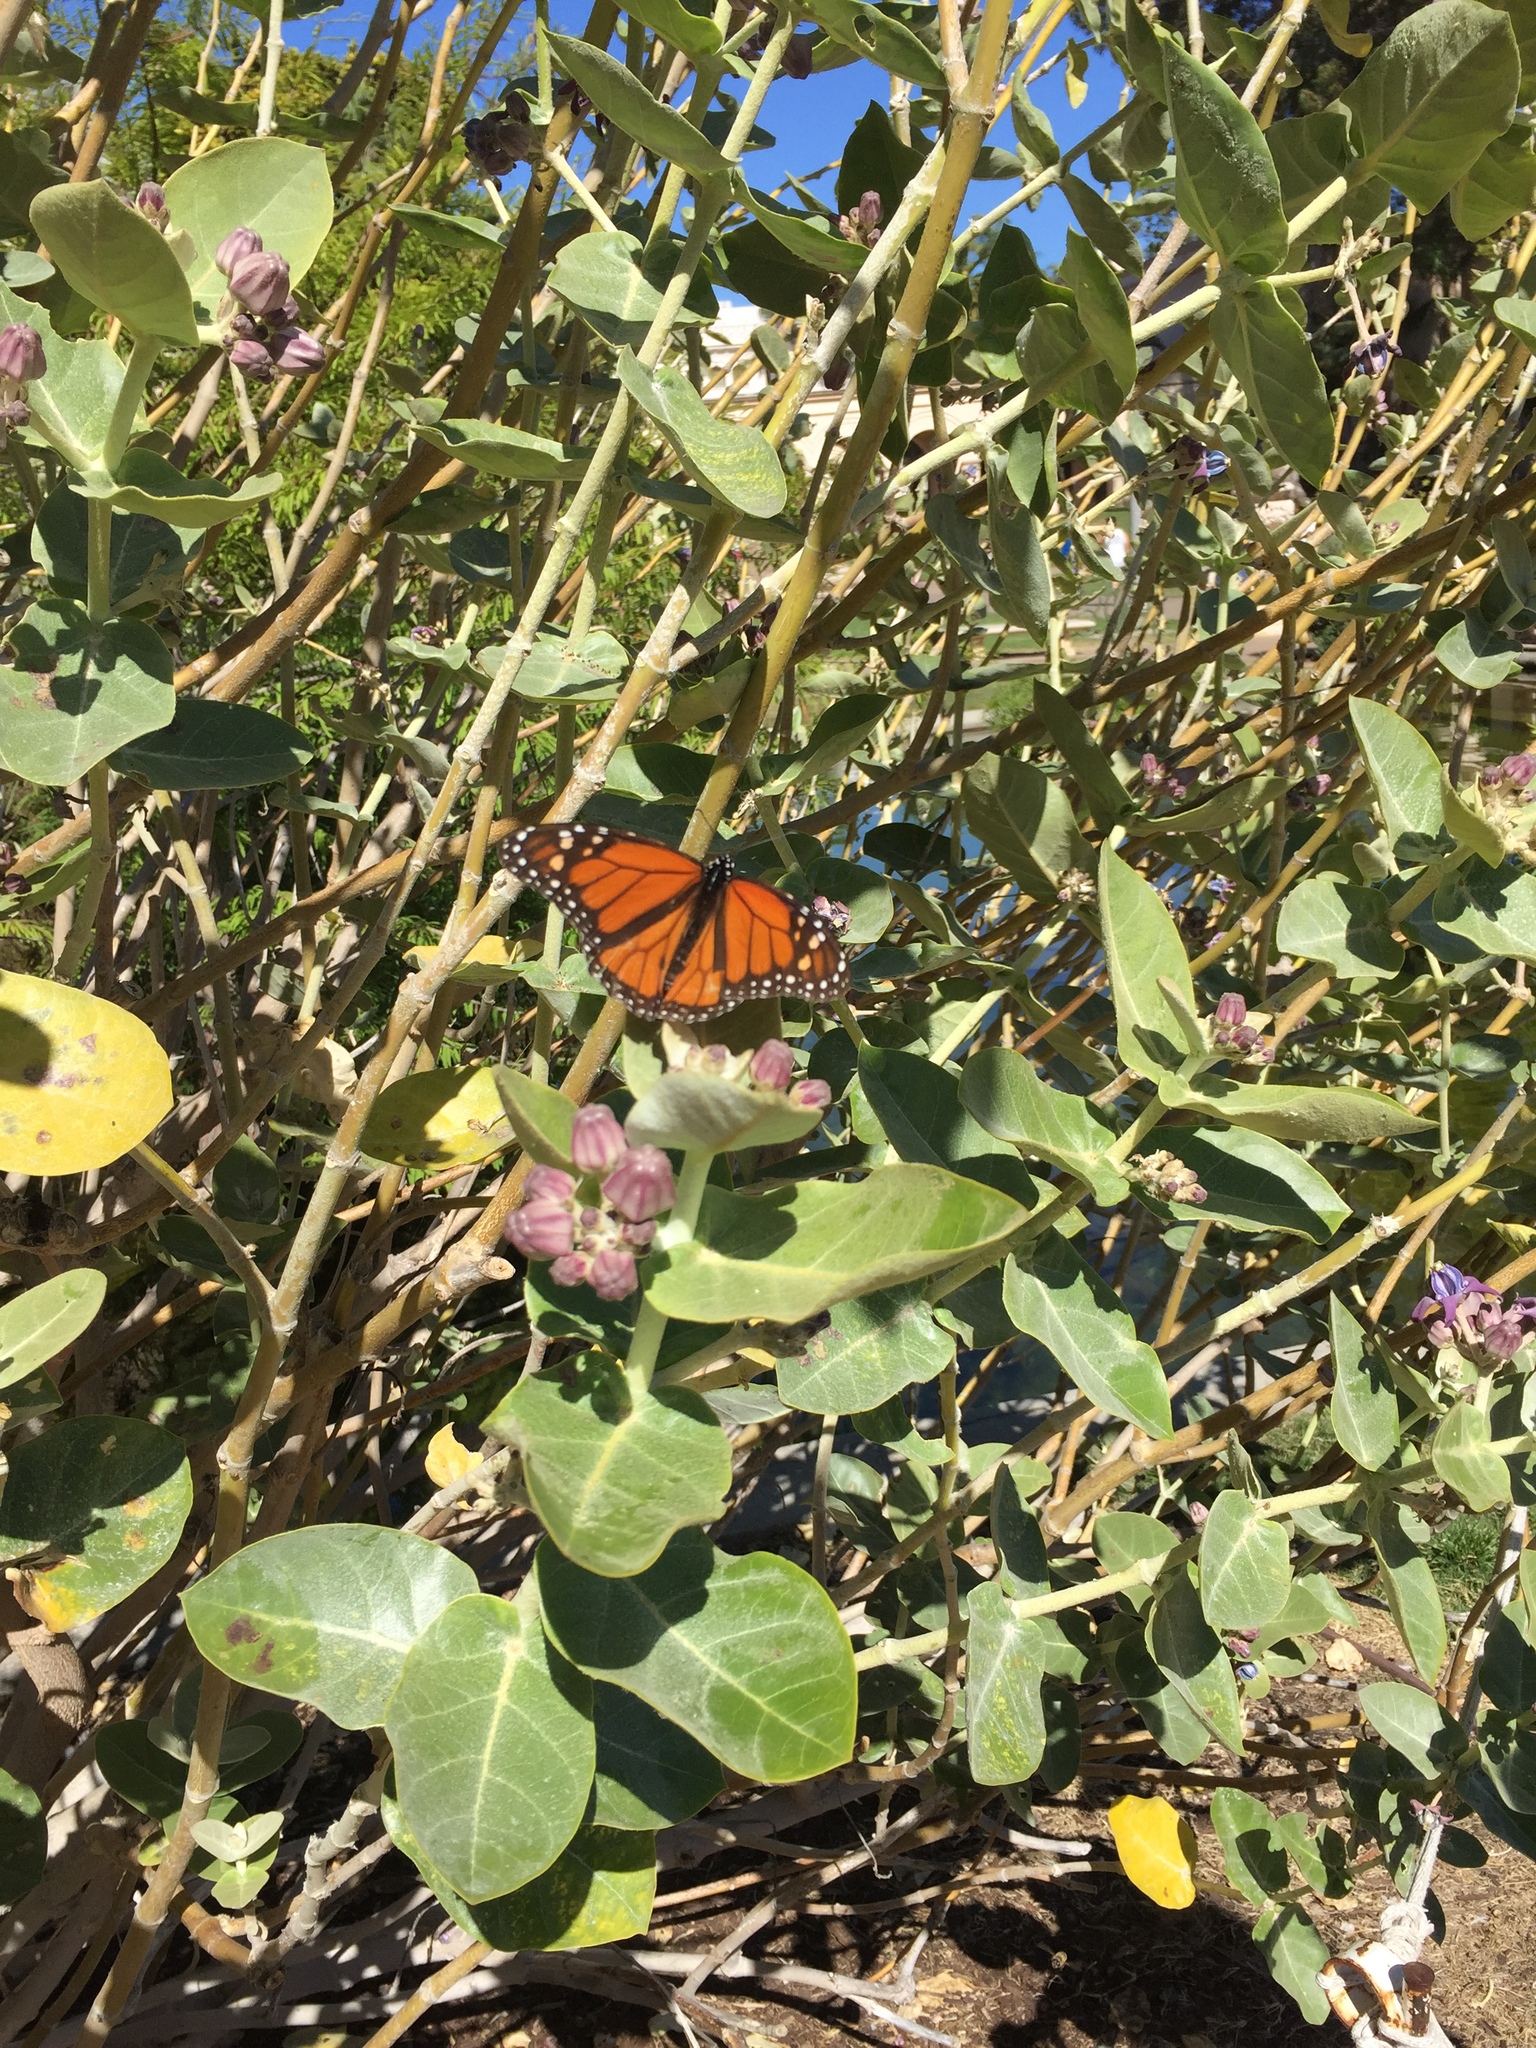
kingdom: Animalia
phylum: Arthropoda
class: Insecta
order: Lepidoptera
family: Nymphalidae
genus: Danaus
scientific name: Danaus plexippus
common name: Monarch
